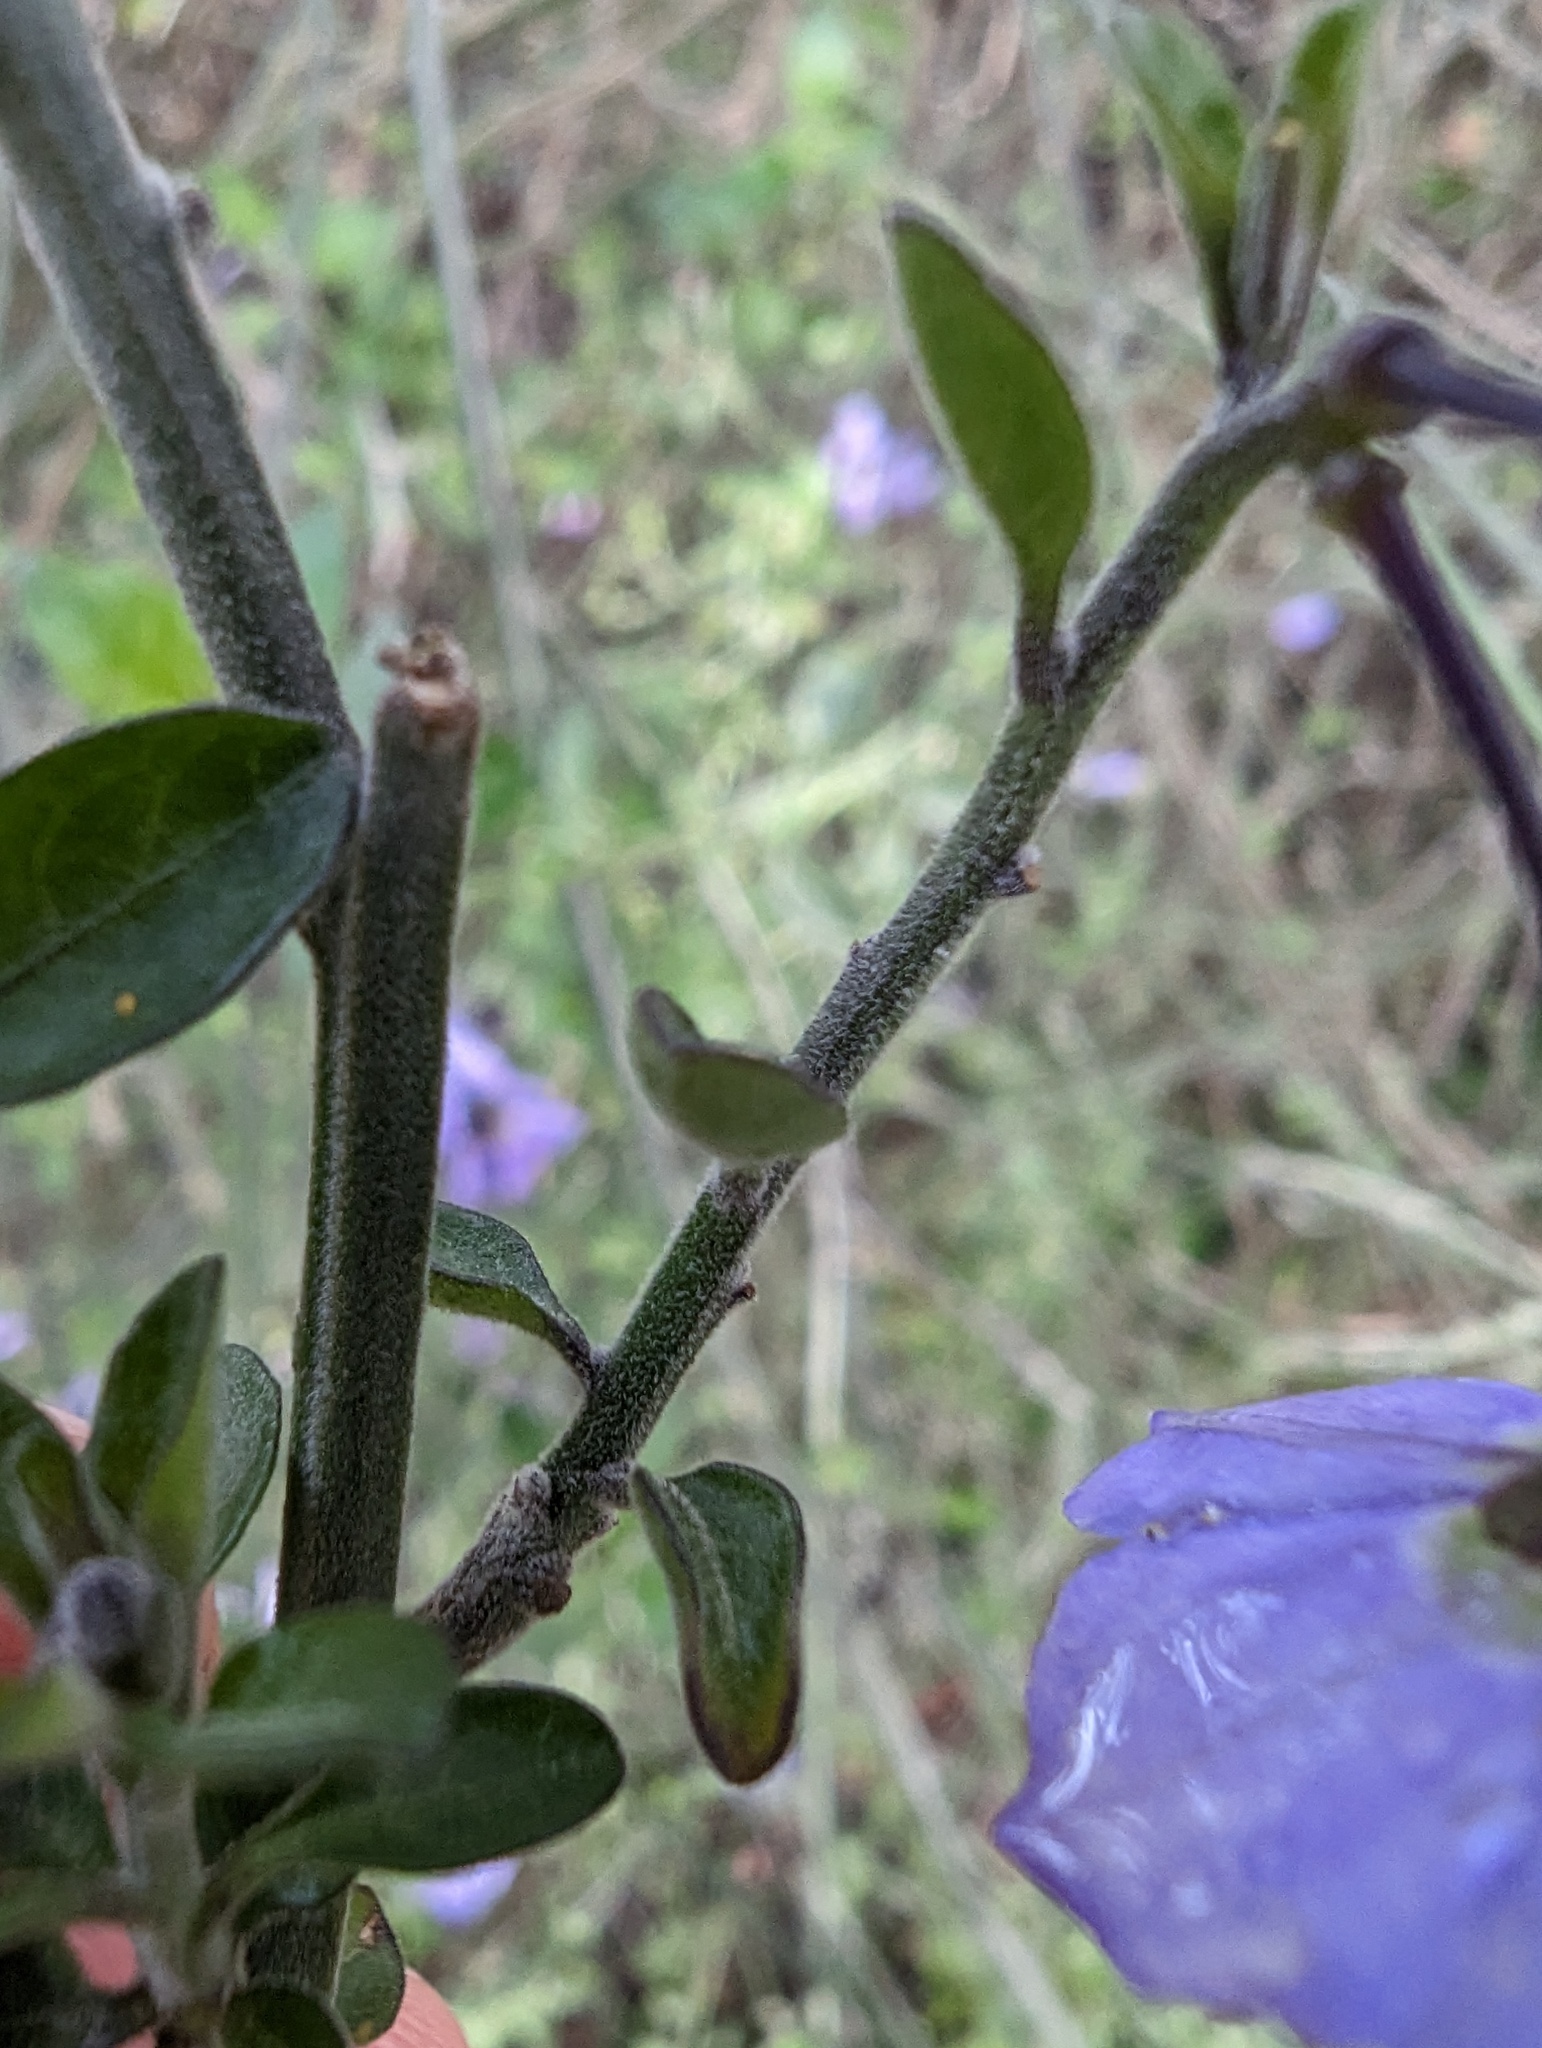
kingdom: Plantae
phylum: Tracheophyta
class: Magnoliopsida
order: Solanales
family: Solanaceae
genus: Solanum
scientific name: Solanum umbelliferum
